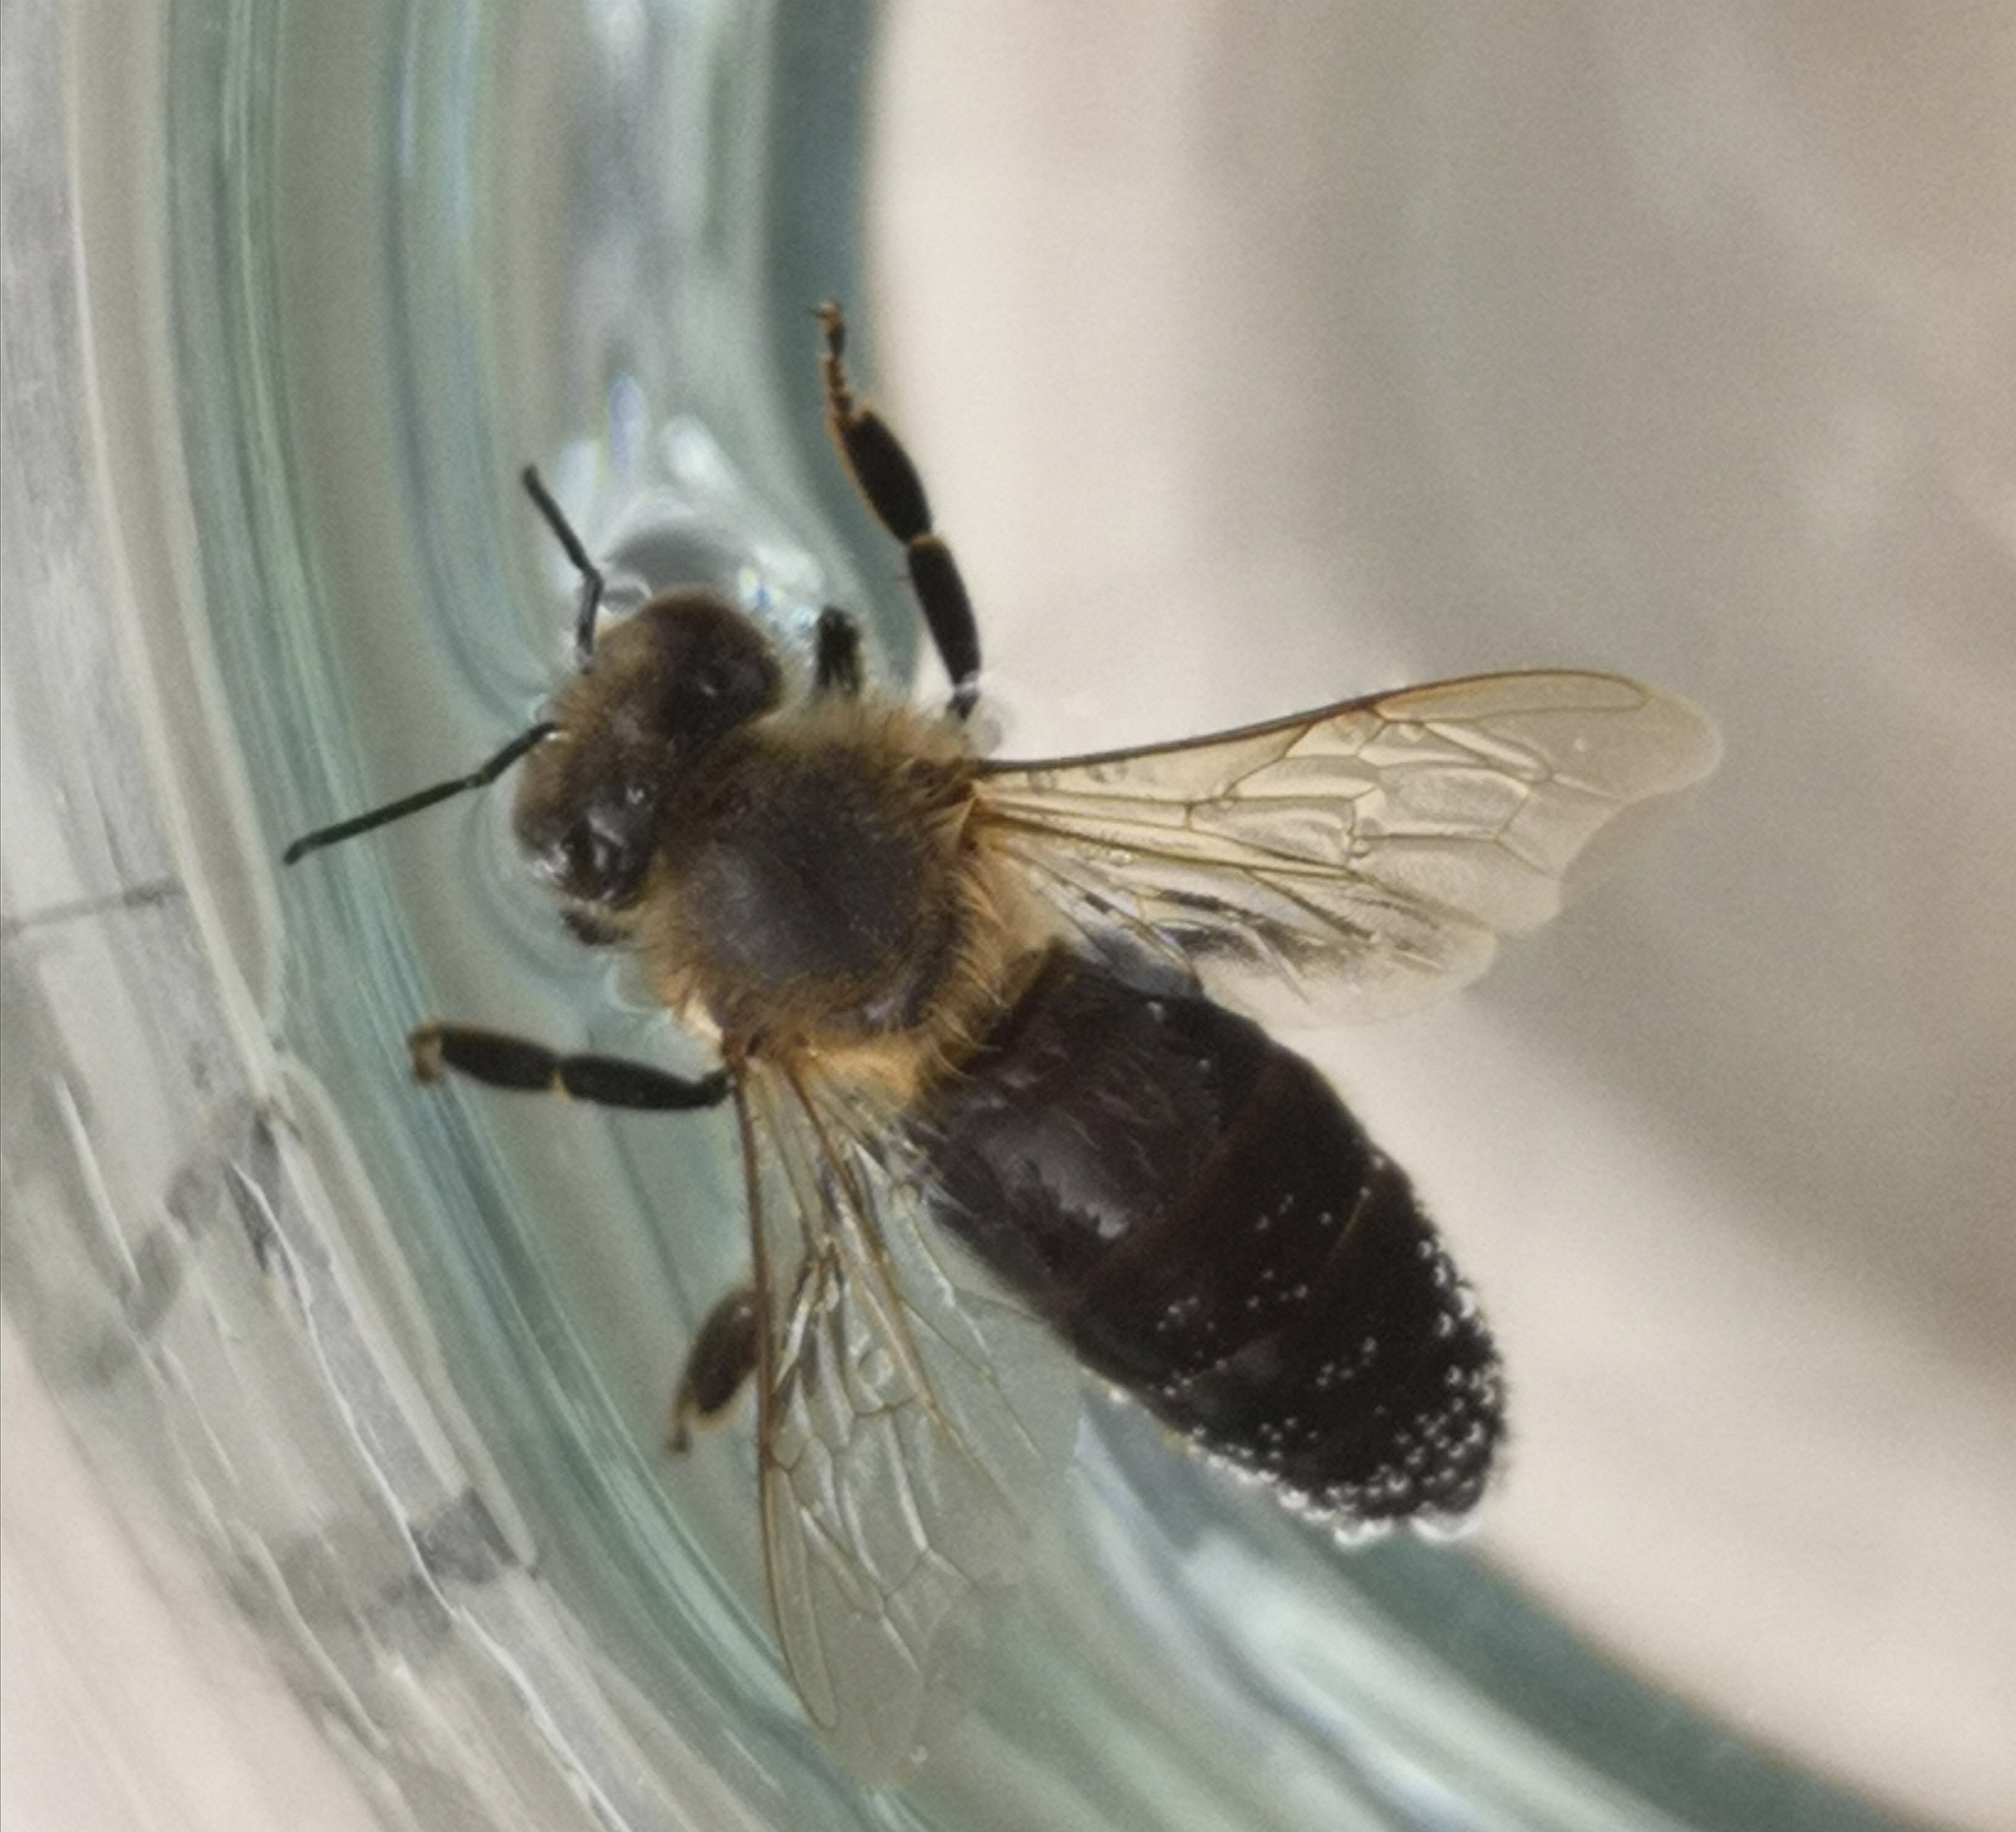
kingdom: Animalia
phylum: Arthropoda
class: Insecta
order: Hymenoptera
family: Apidae
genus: Apis
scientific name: Apis mellifera
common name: Honey bee
